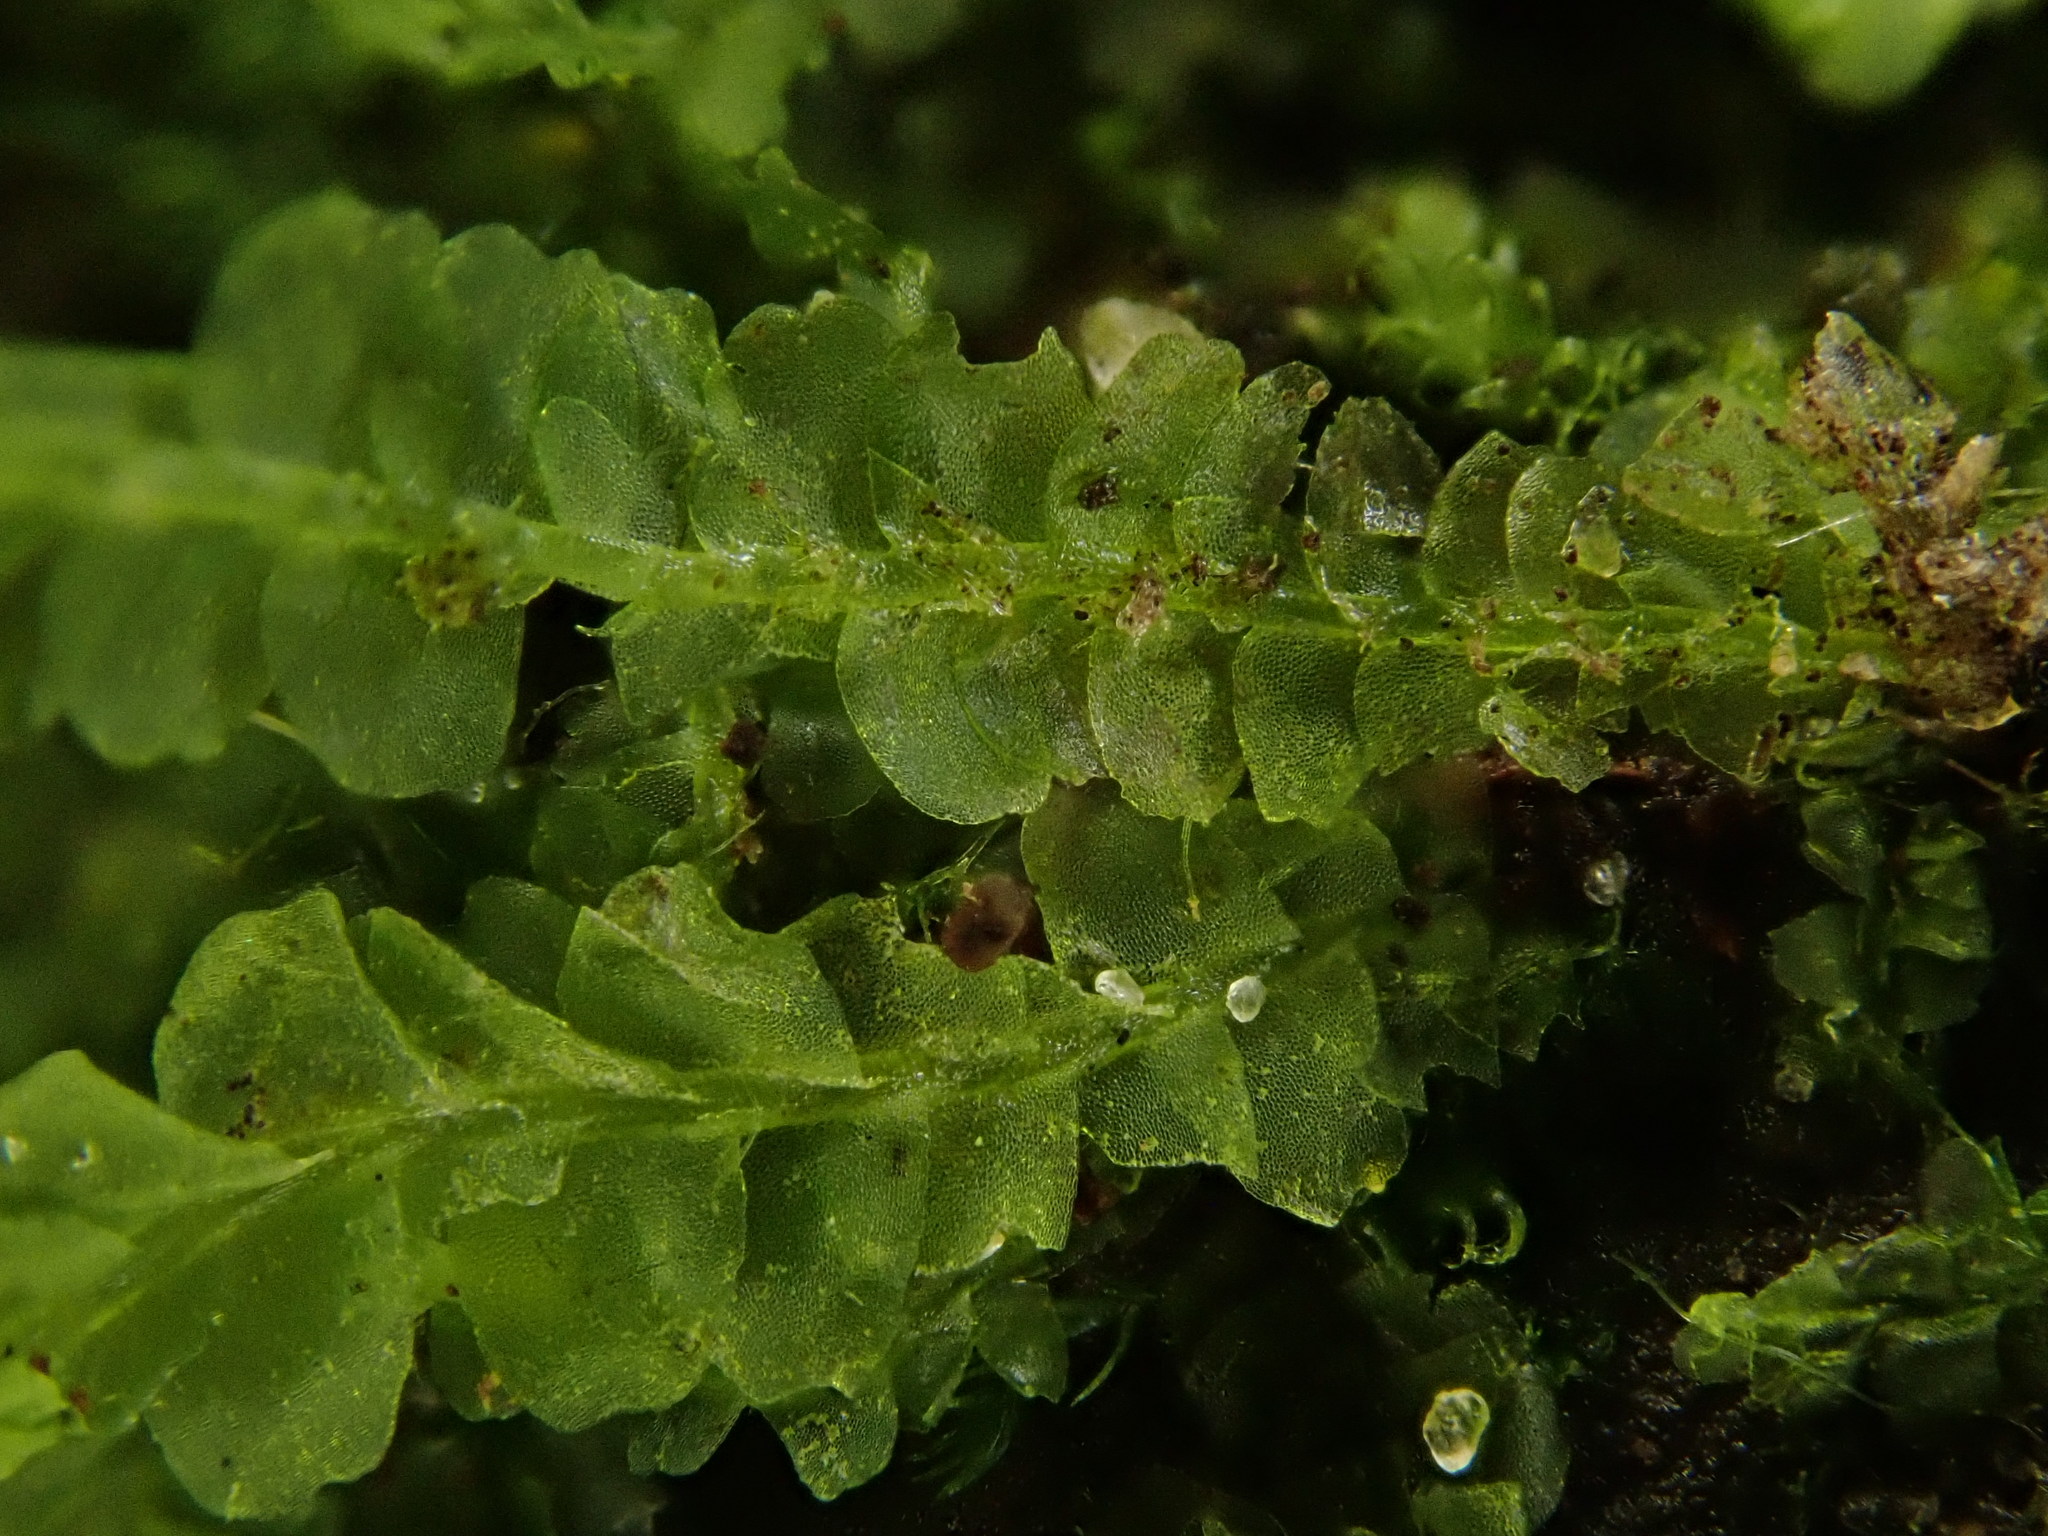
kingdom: Plantae
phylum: Marchantiophyta
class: Jungermanniopsida
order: Jungermanniales
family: Lophocoleaceae
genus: Lophocolea
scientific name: Lophocolea heterophylla
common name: Variable-leaved crestwort
